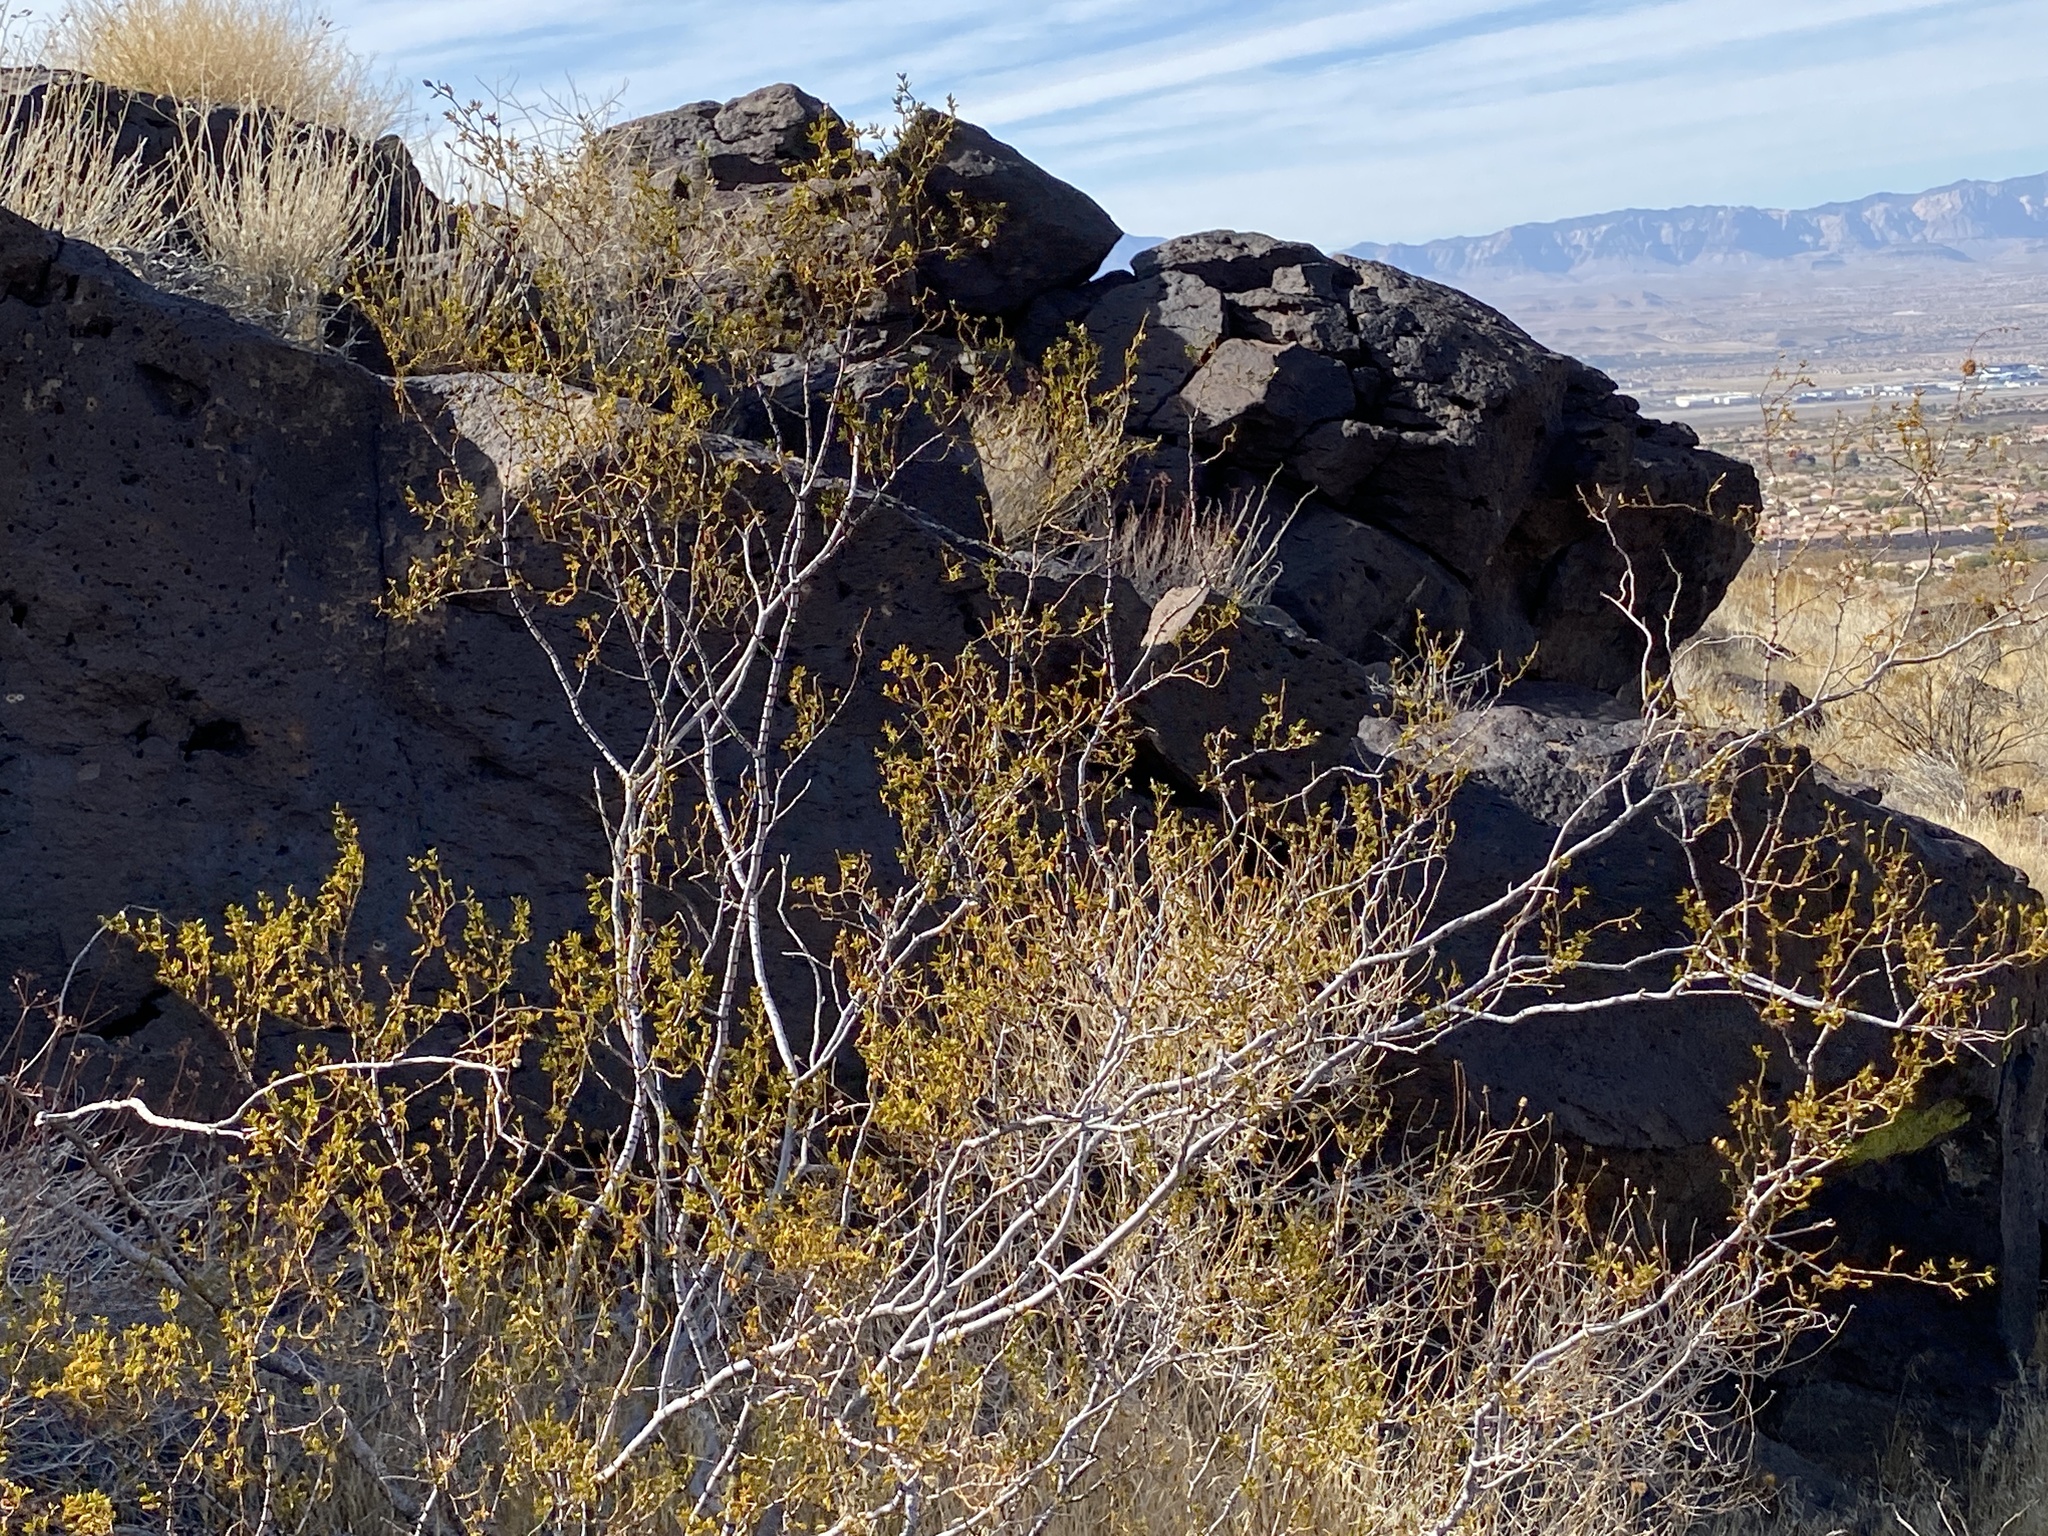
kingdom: Plantae
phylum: Tracheophyta
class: Magnoliopsida
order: Zygophyllales
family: Zygophyllaceae
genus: Larrea
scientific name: Larrea tridentata
